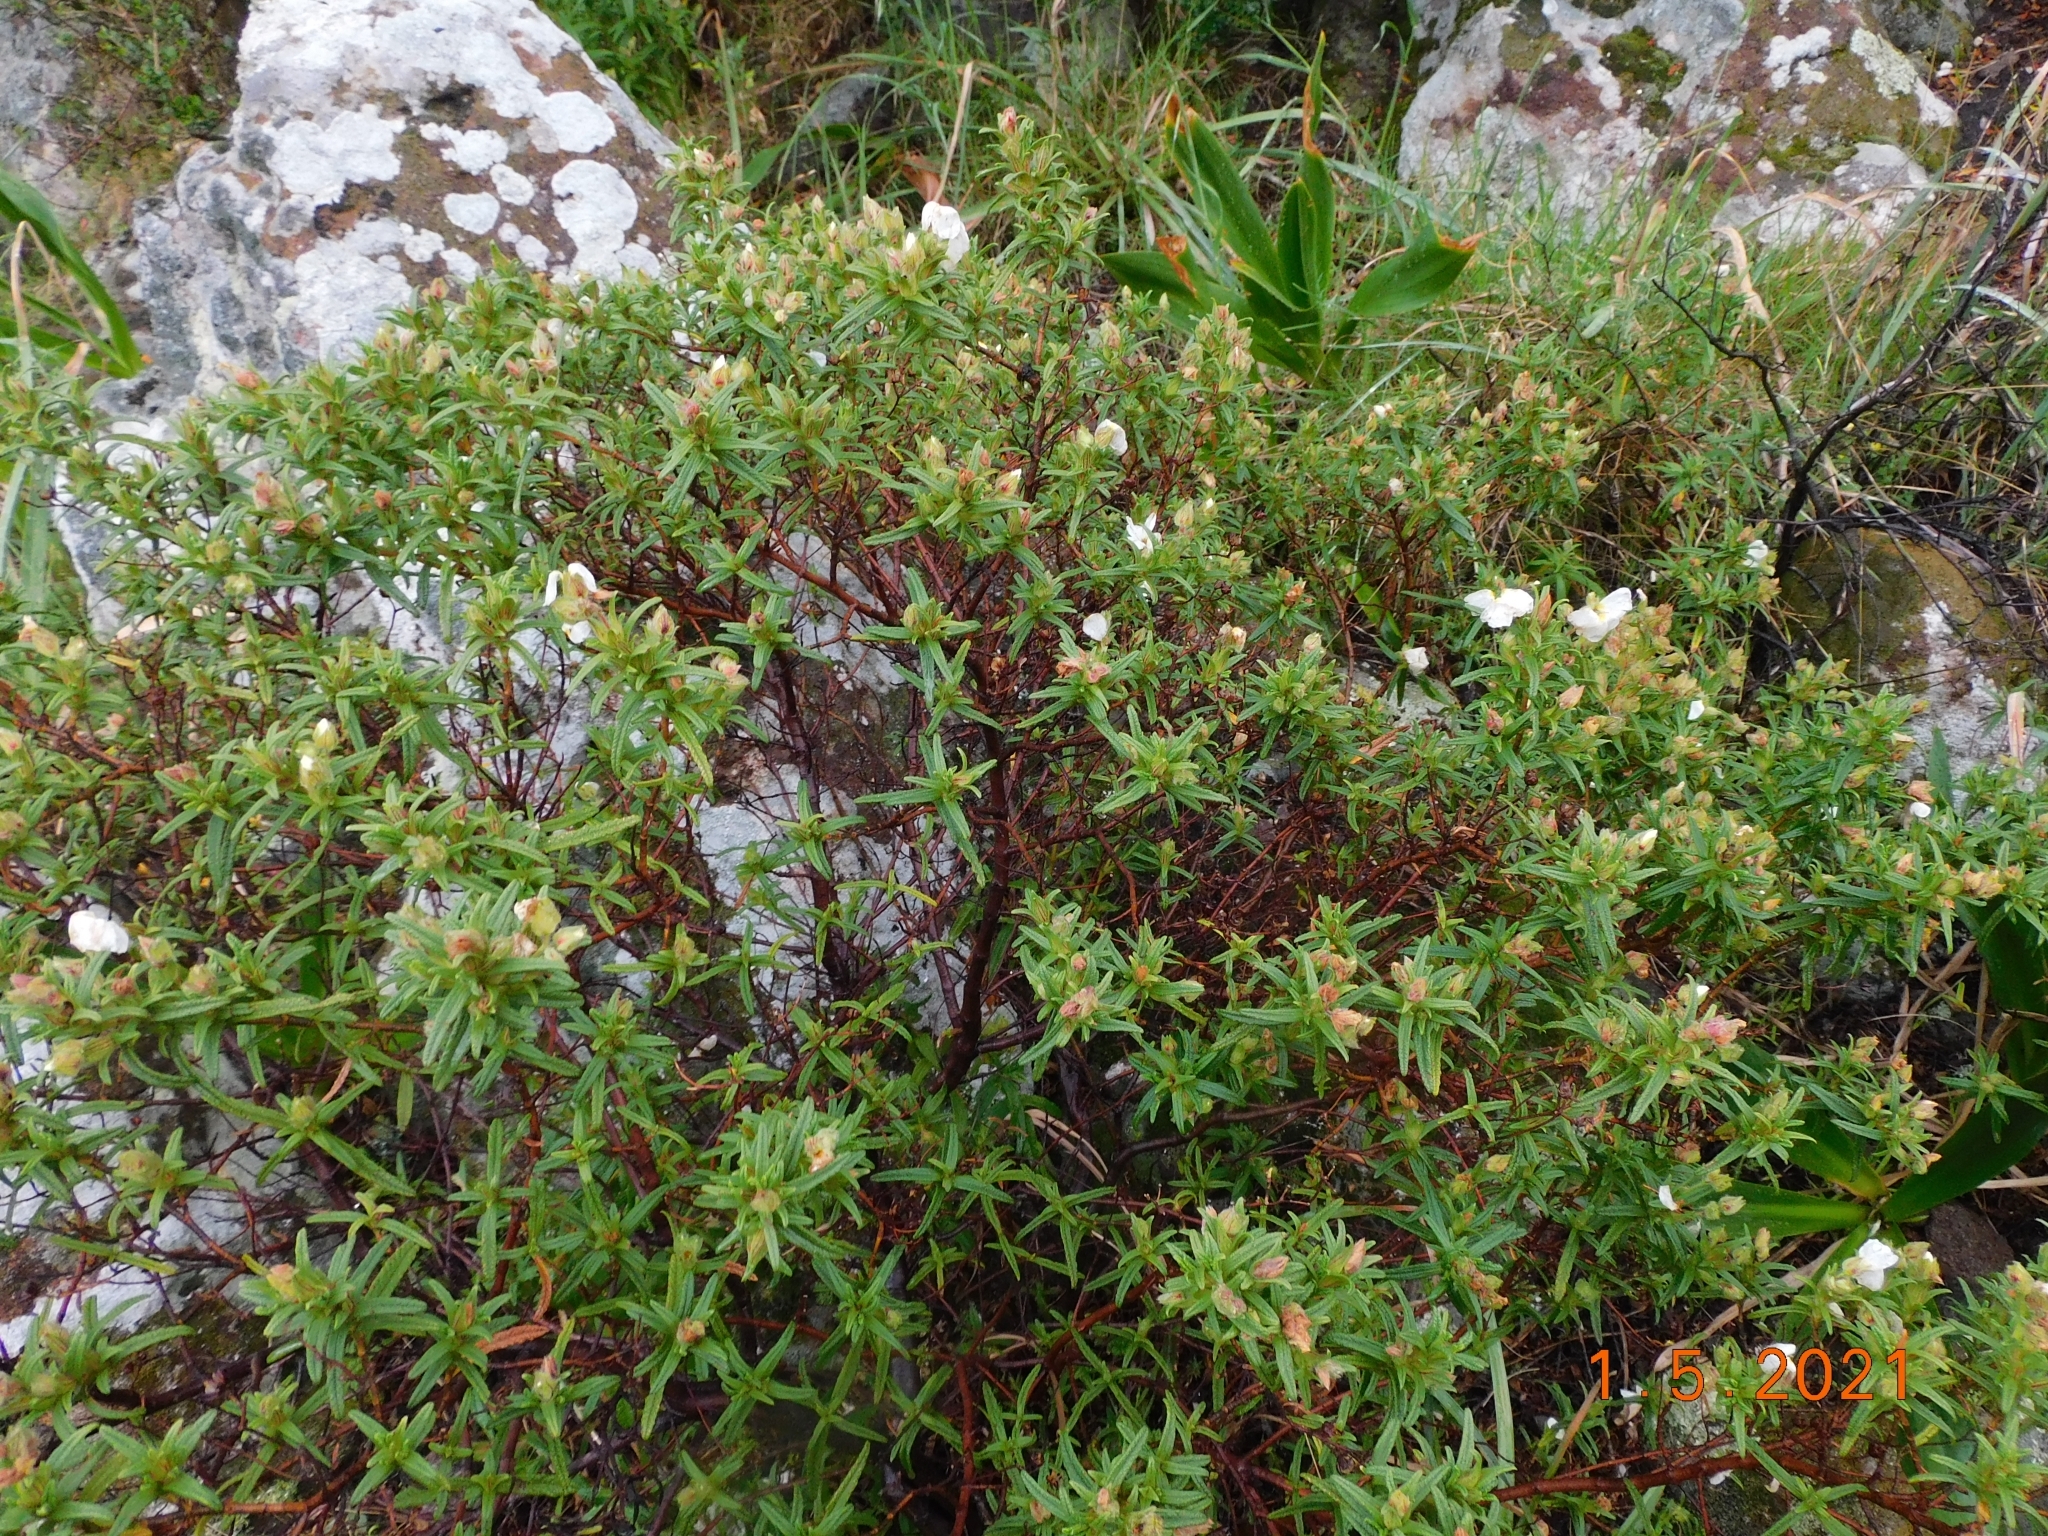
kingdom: Plantae
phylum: Tracheophyta
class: Magnoliopsida
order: Malvales
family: Cistaceae
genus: Cistus
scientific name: Cistus monspeliensis
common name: Montpelier cistus
